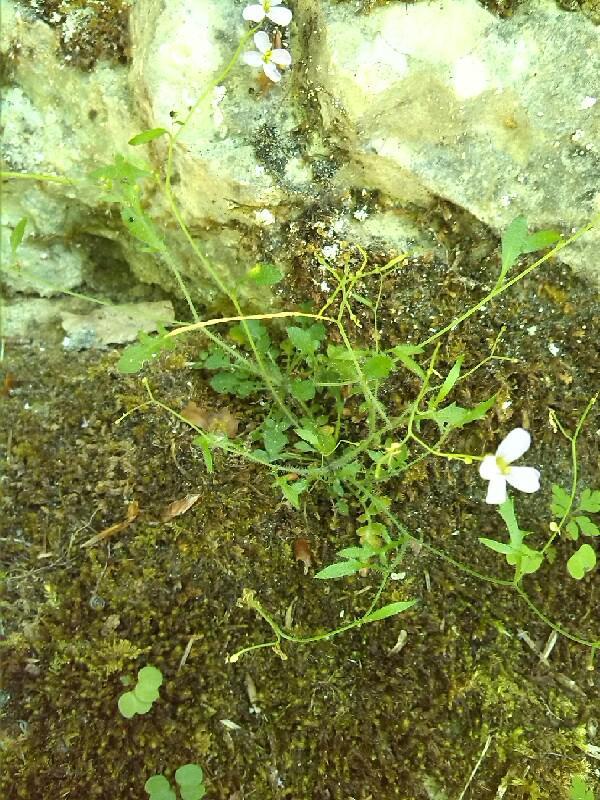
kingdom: Plantae
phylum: Tracheophyta
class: Magnoliopsida
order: Brassicales
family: Brassicaceae
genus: Arabidopsis
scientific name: Arabidopsis arenosa
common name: Sand rock-cress
